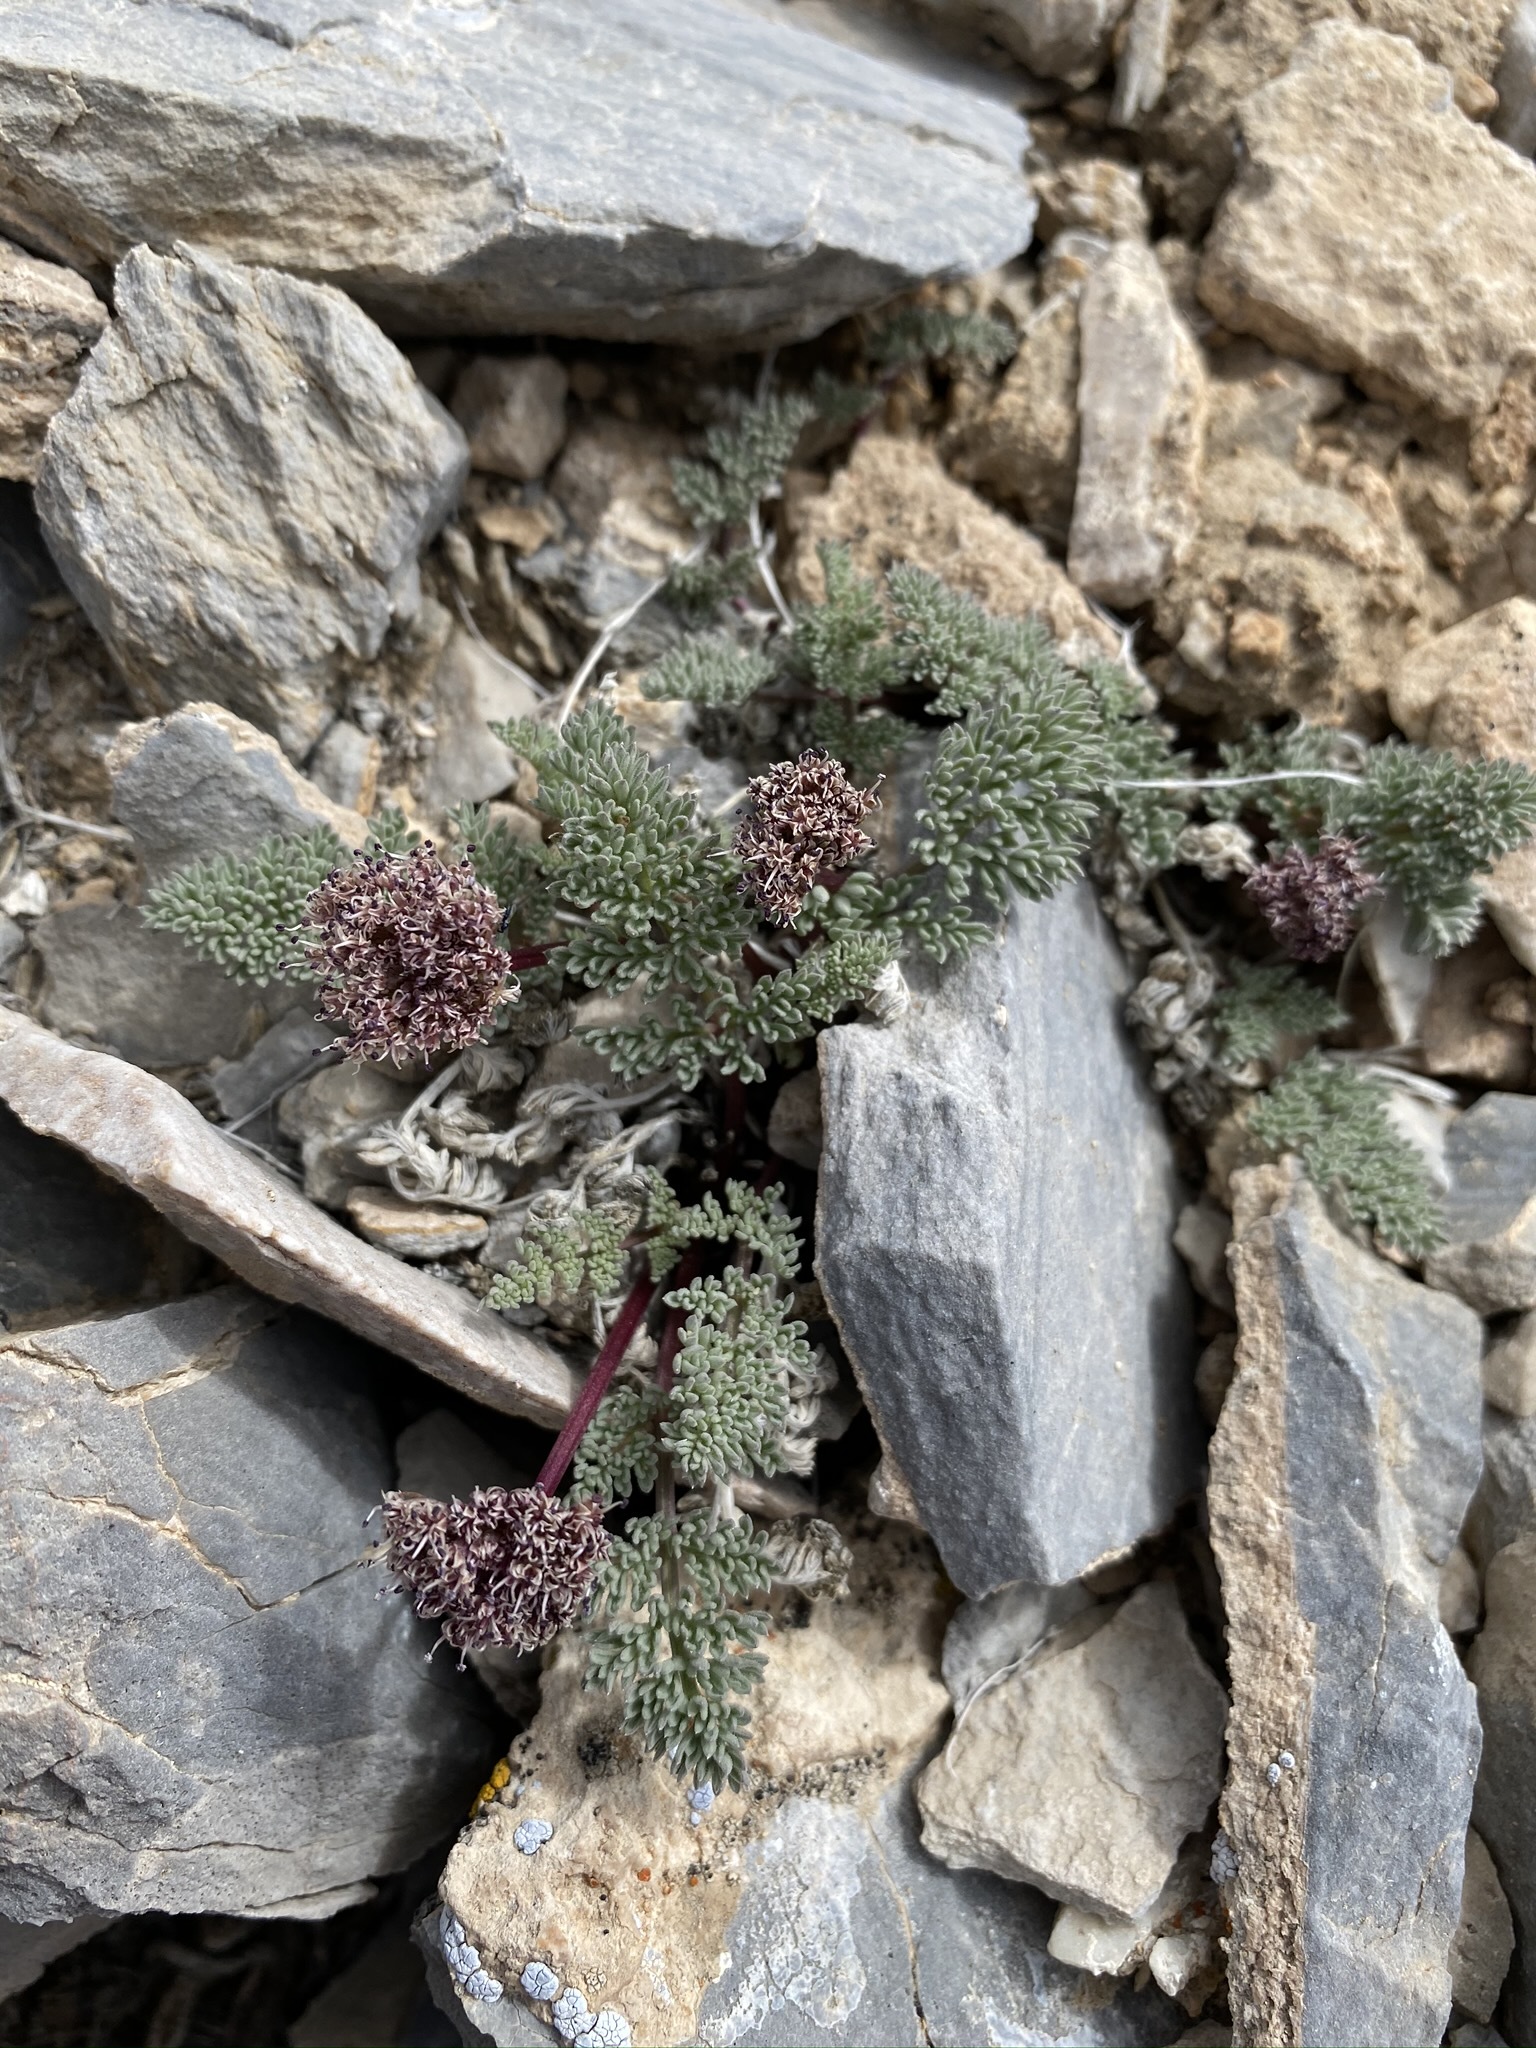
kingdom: Plantae
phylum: Tracheophyta
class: Magnoliopsida
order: Apiales
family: Apiaceae
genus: Aulospermum
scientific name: Aulospermum aboriginum
